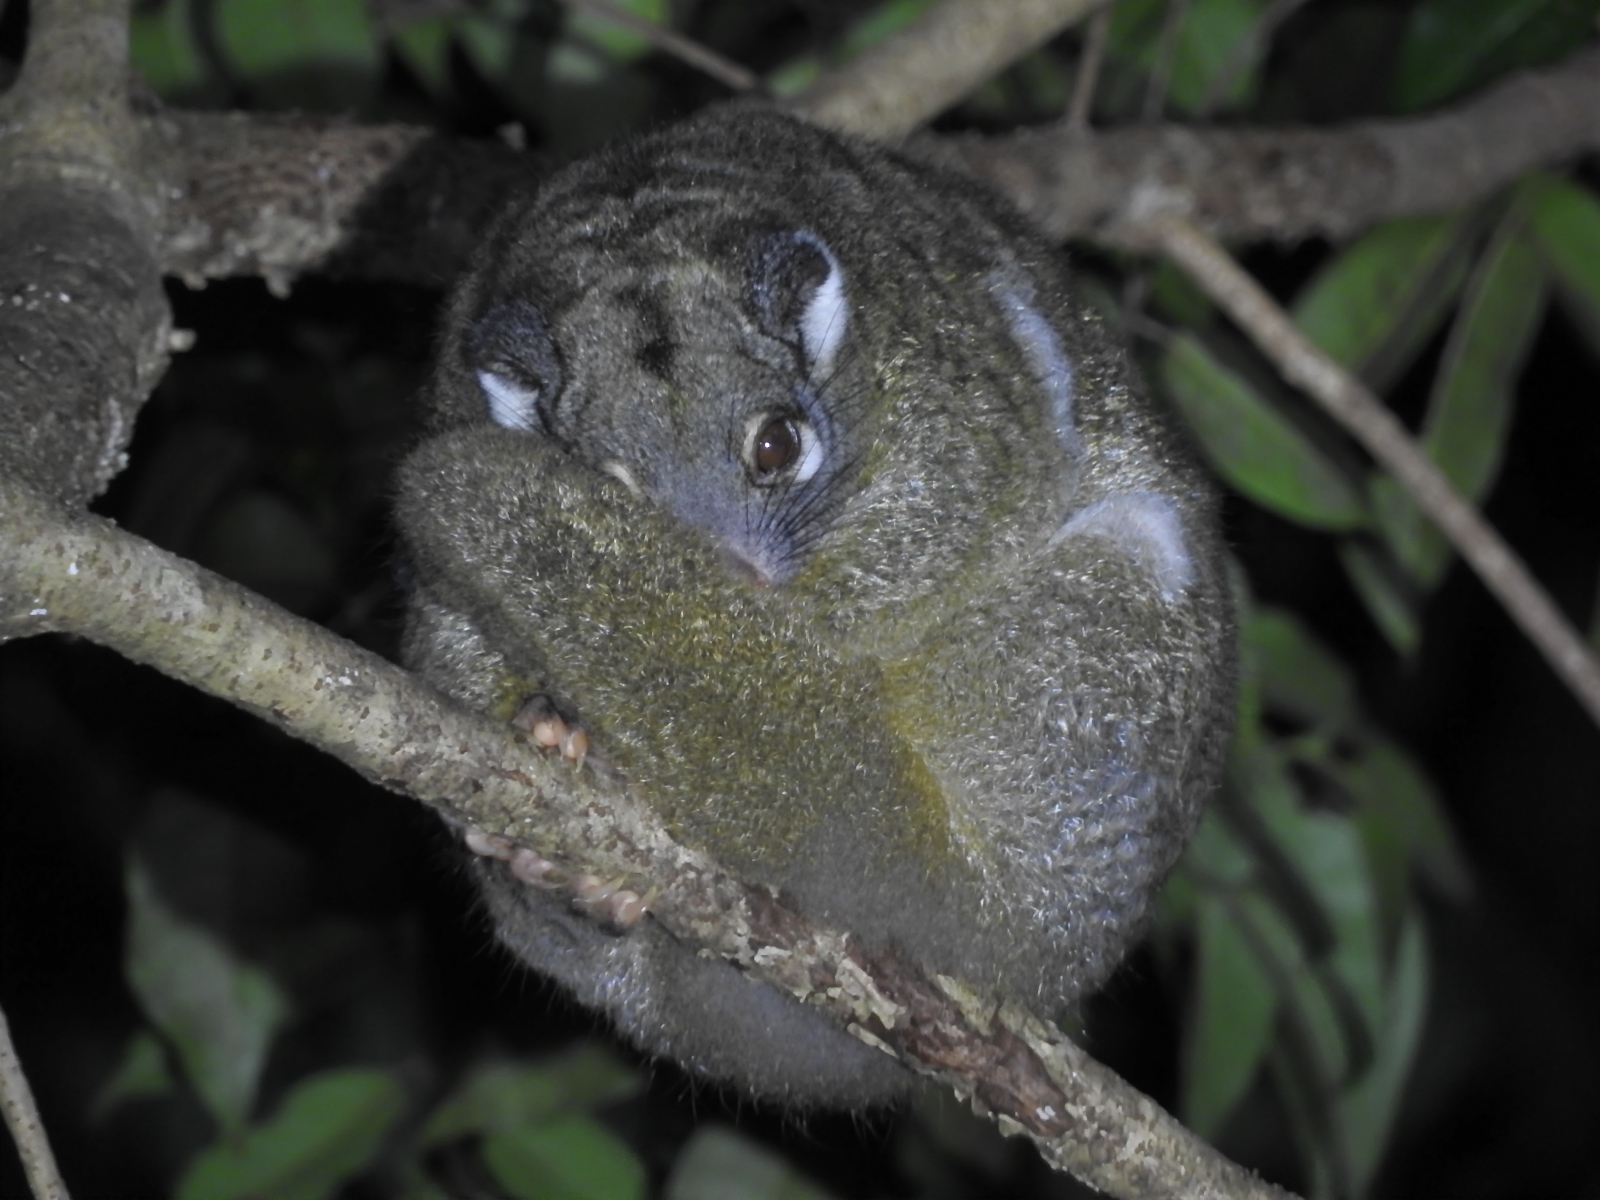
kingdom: Animalia
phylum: Chordata
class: Mammalia
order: Diprotodontia
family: Pseudocheiridae
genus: Pseudochirops
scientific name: Pseudochirops archeri
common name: Green ringtail
